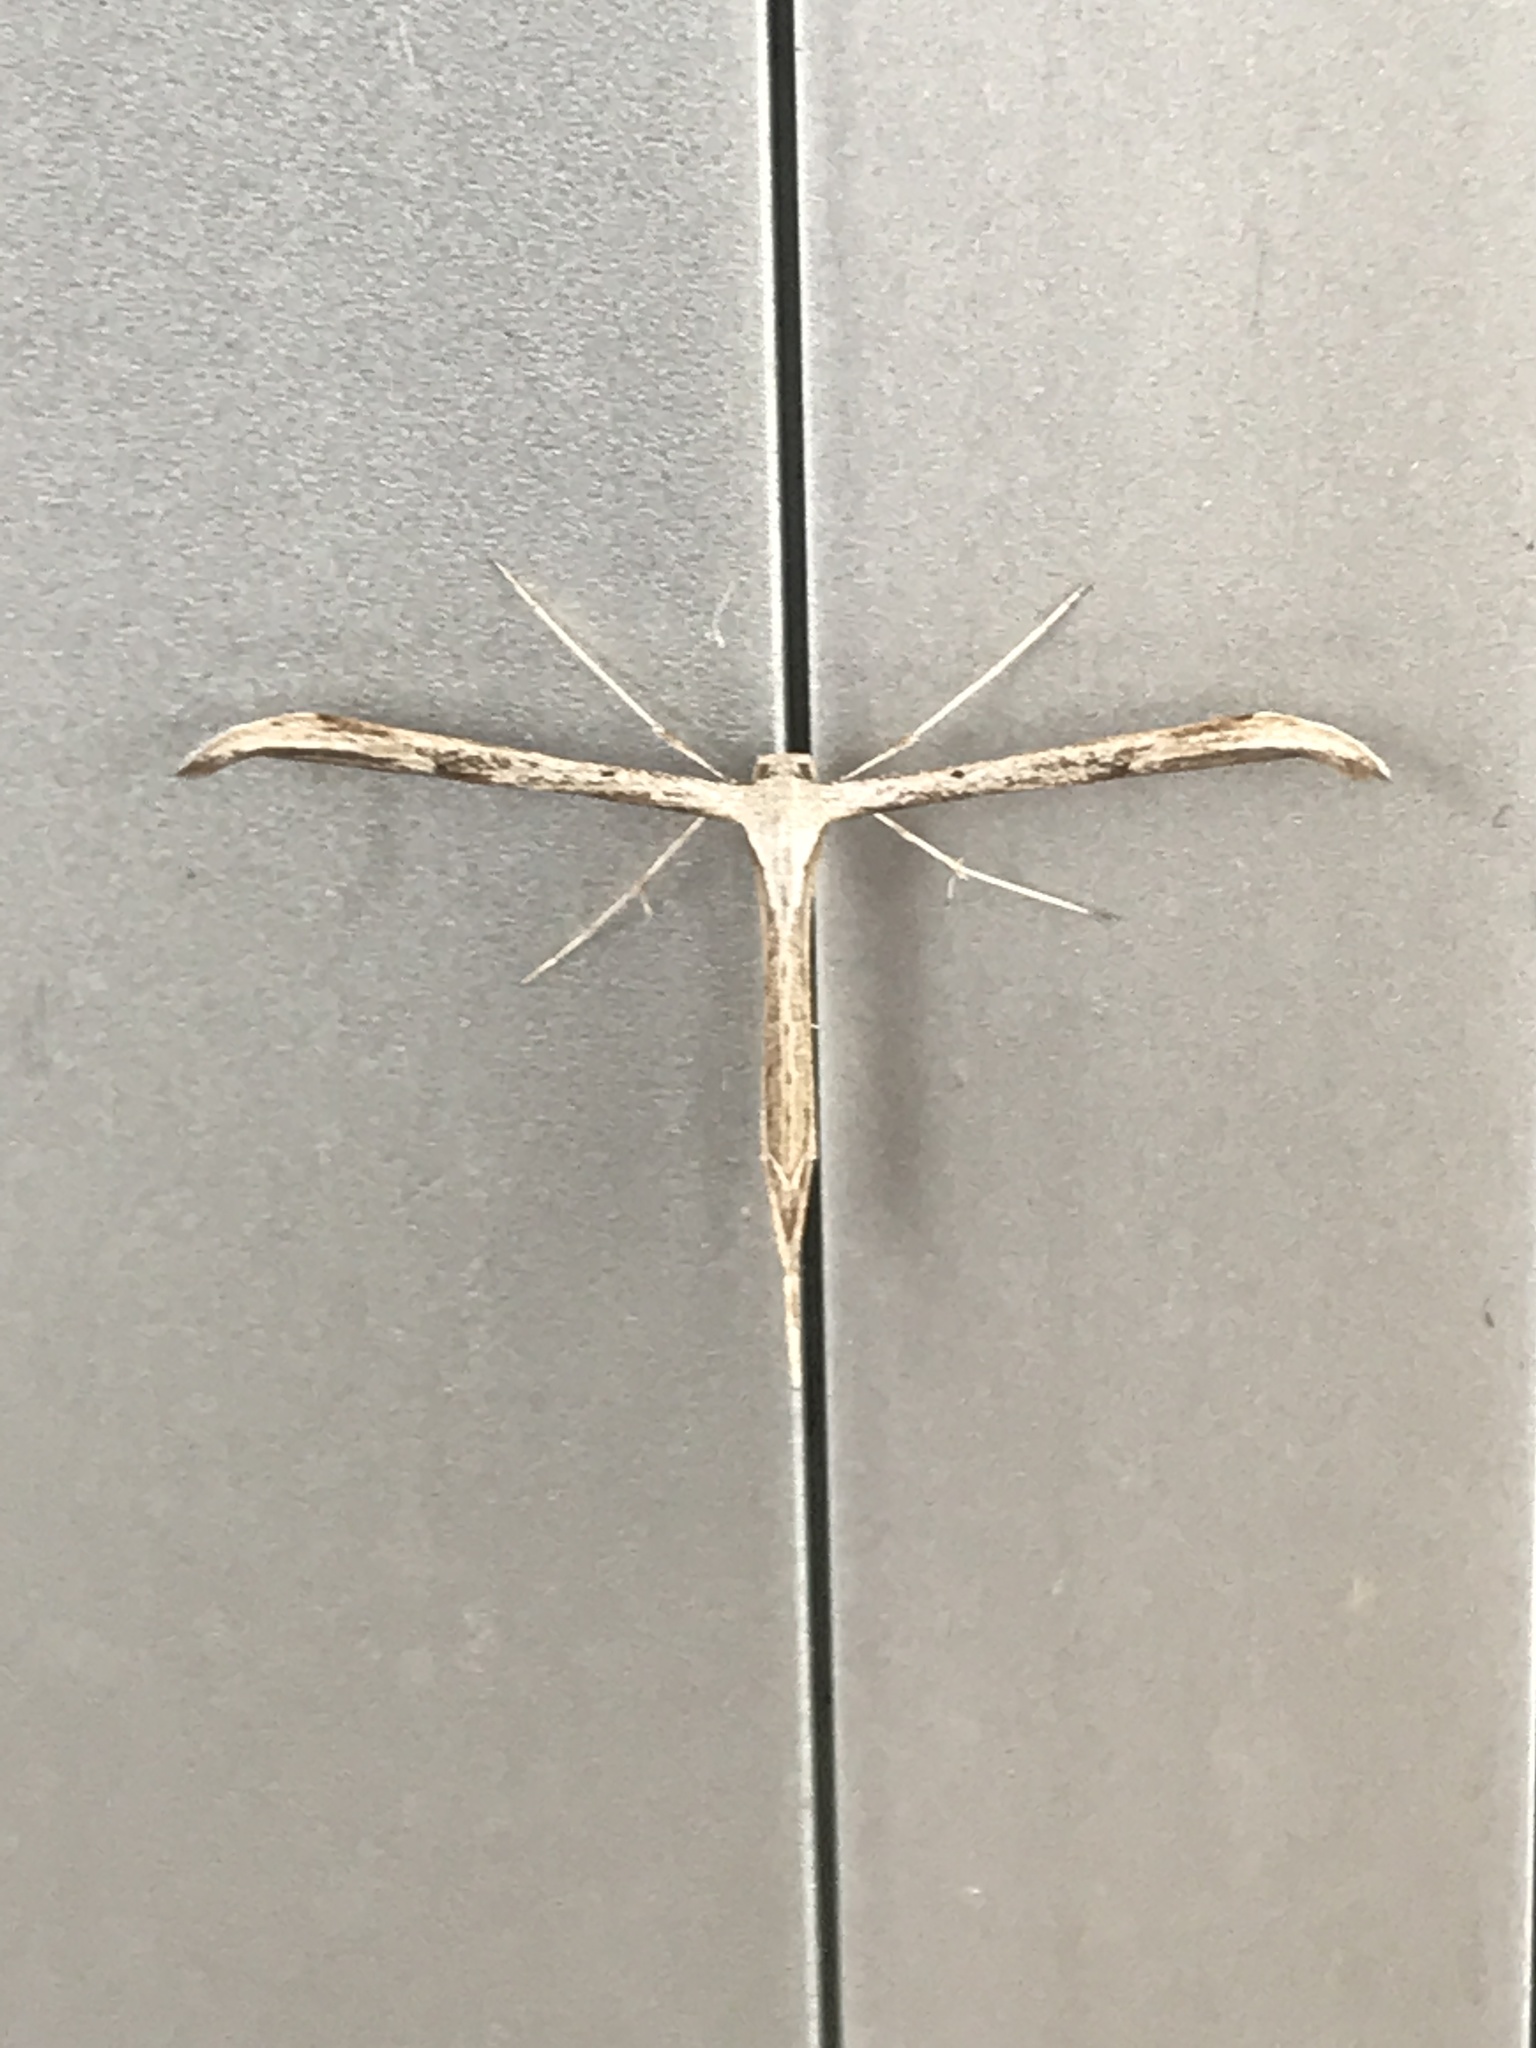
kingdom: Animalia
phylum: Arthropoda
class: Insecta
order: Lepidoptera
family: Pterophoridae
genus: Emmelina
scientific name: Emmelina monodactyla
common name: Common plume
